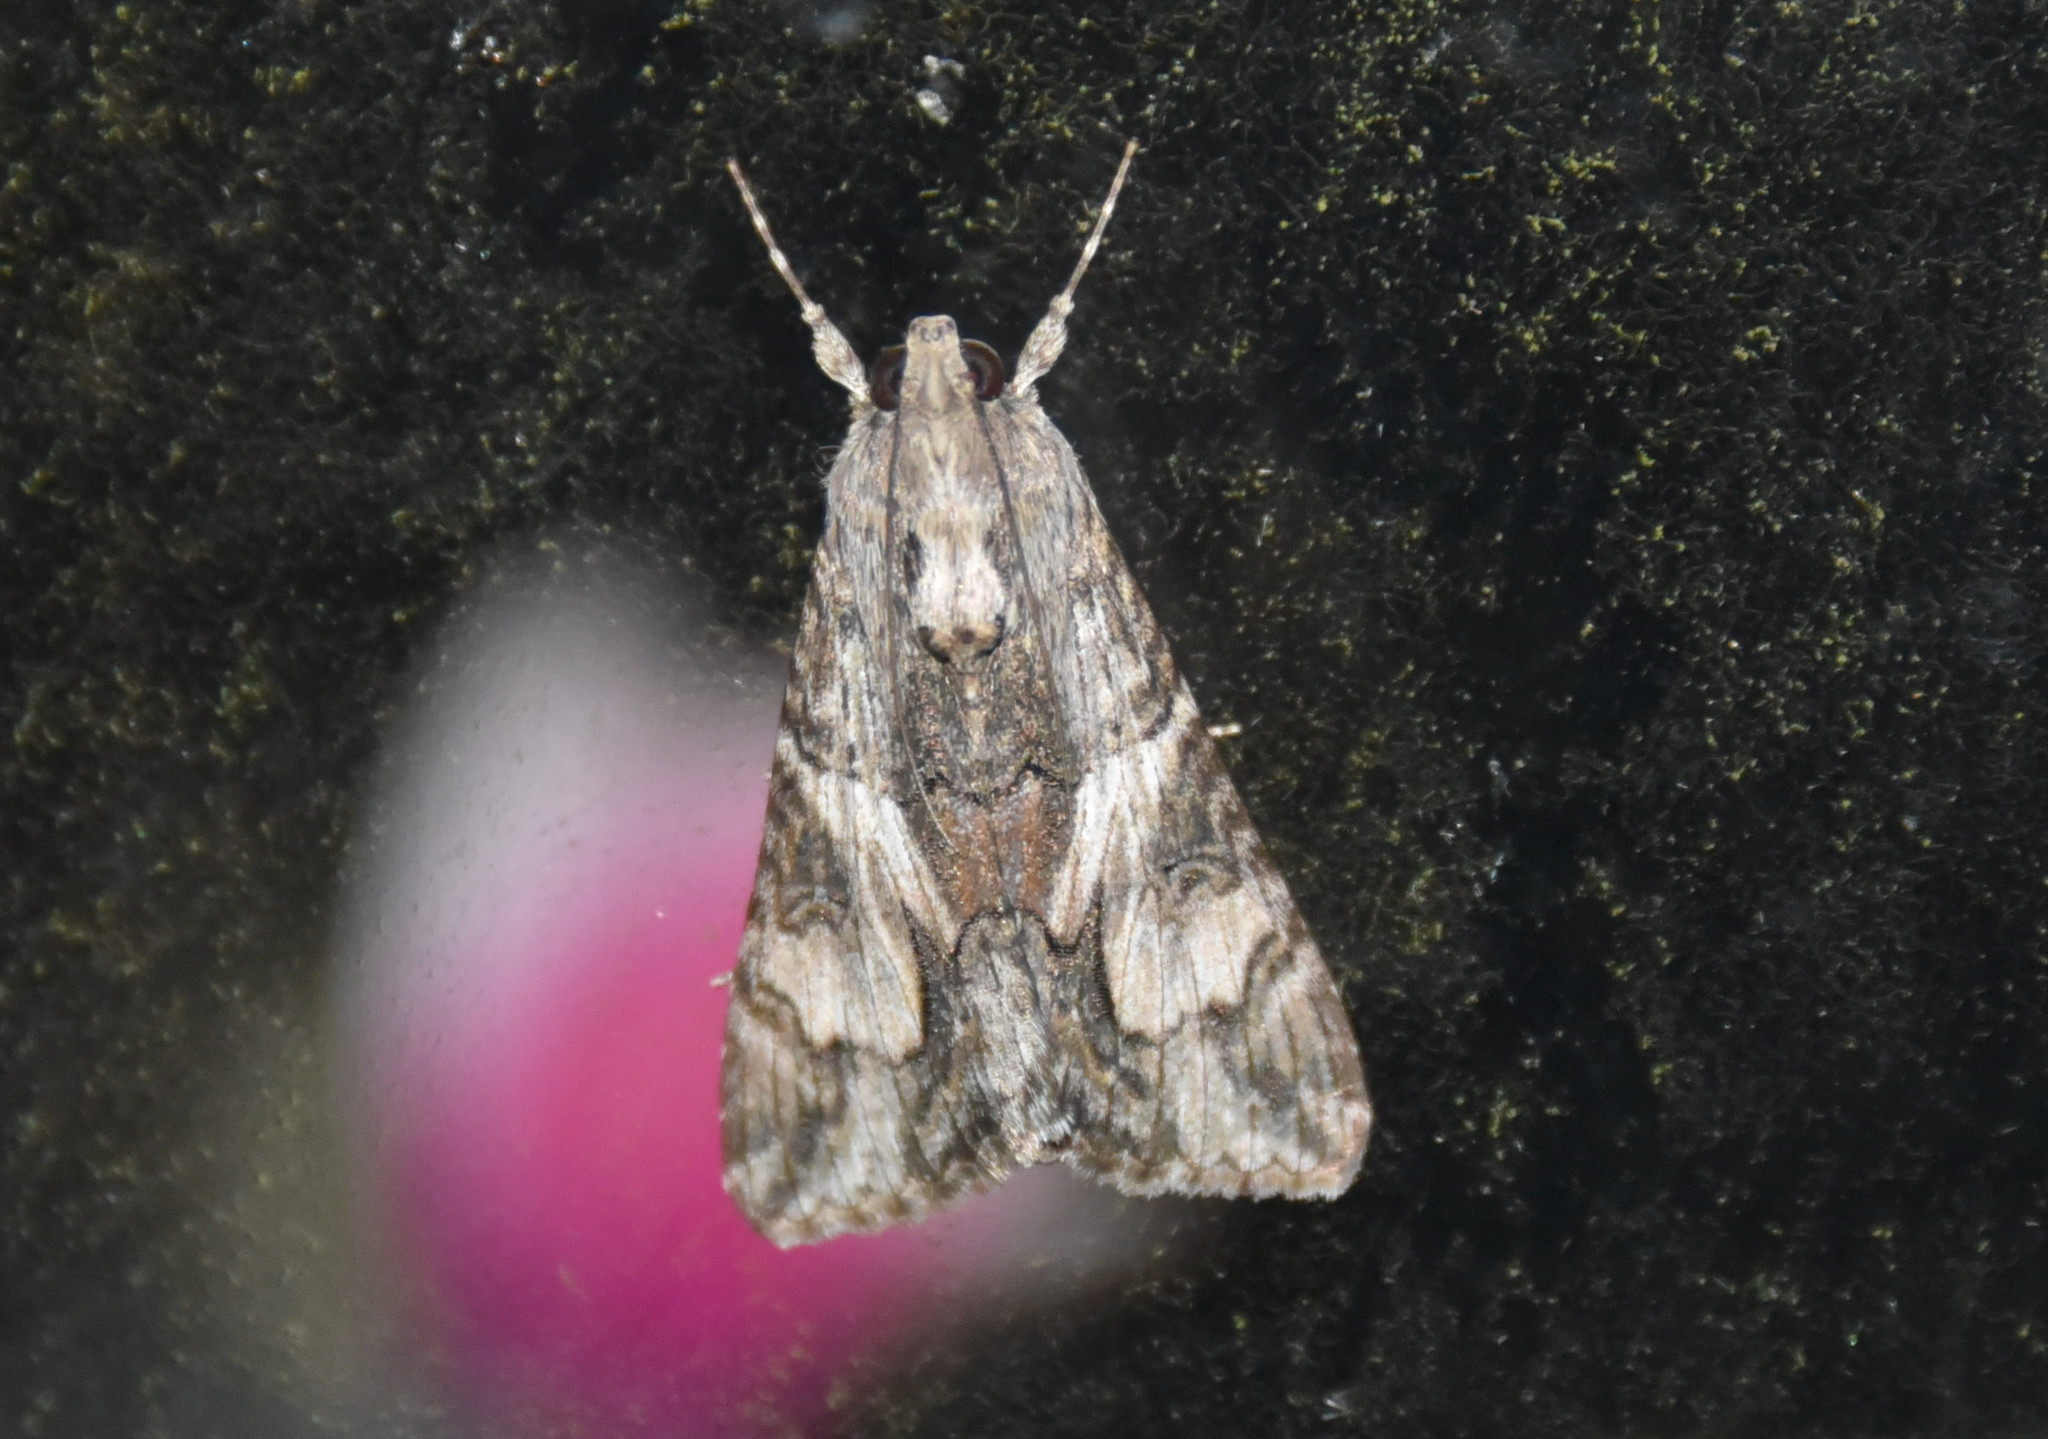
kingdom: Animalia
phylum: Arthropoda
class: Insecta
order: Lepidoptera
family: Erebidae
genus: Melipotis
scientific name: Melipotis jucunda
